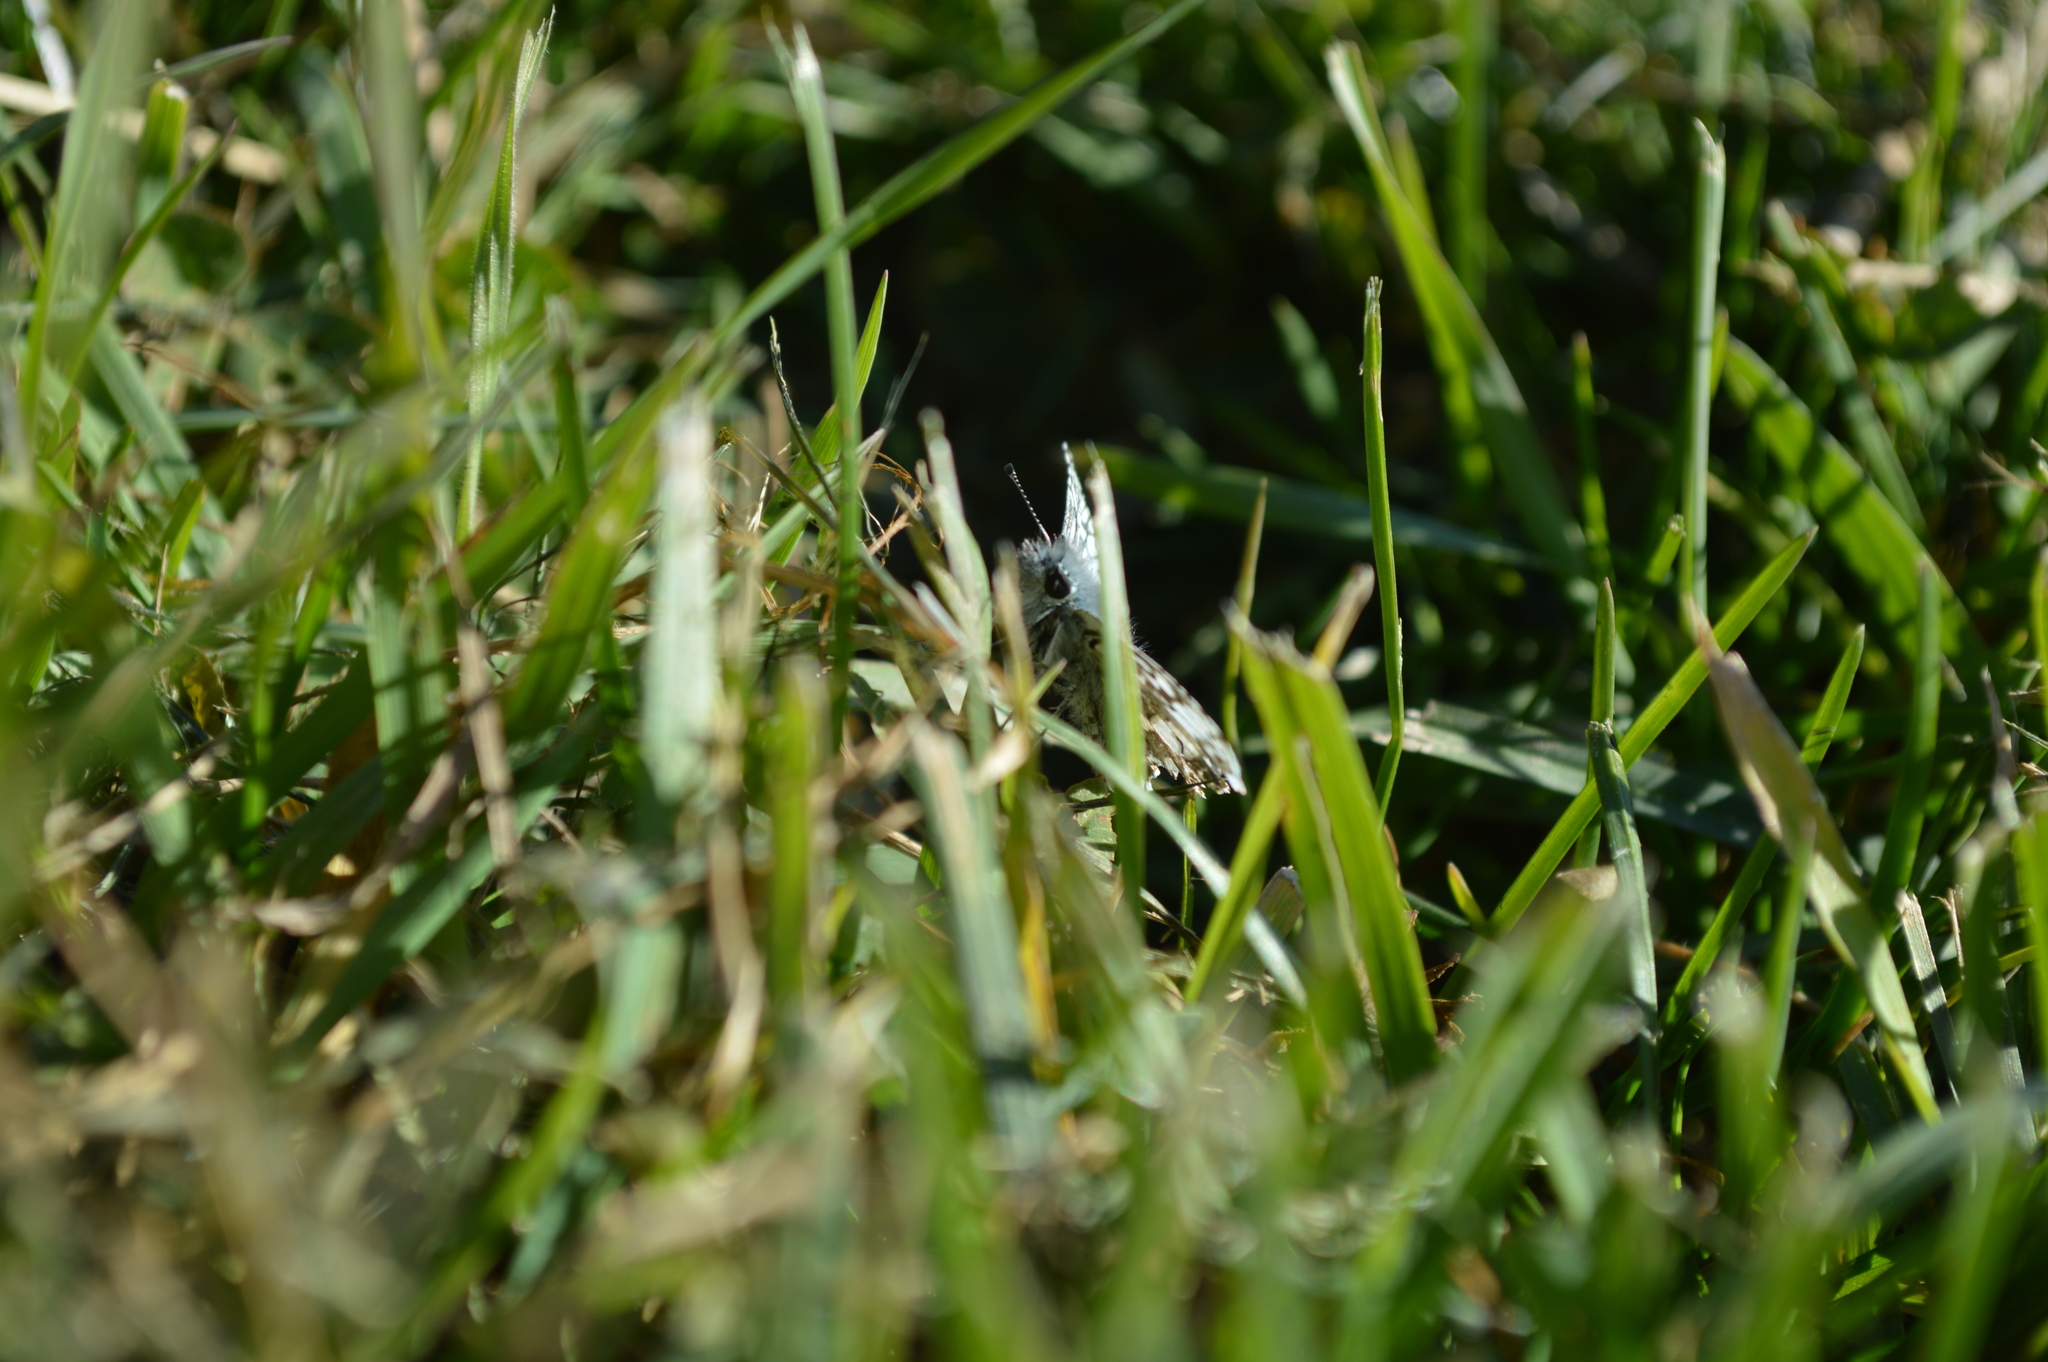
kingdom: Animalia
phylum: Arthropoda
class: Insecta
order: Lepidoptera
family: Hesperiidae
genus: Burnsius
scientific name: Burnsius communis
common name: Common checkered-skipper
